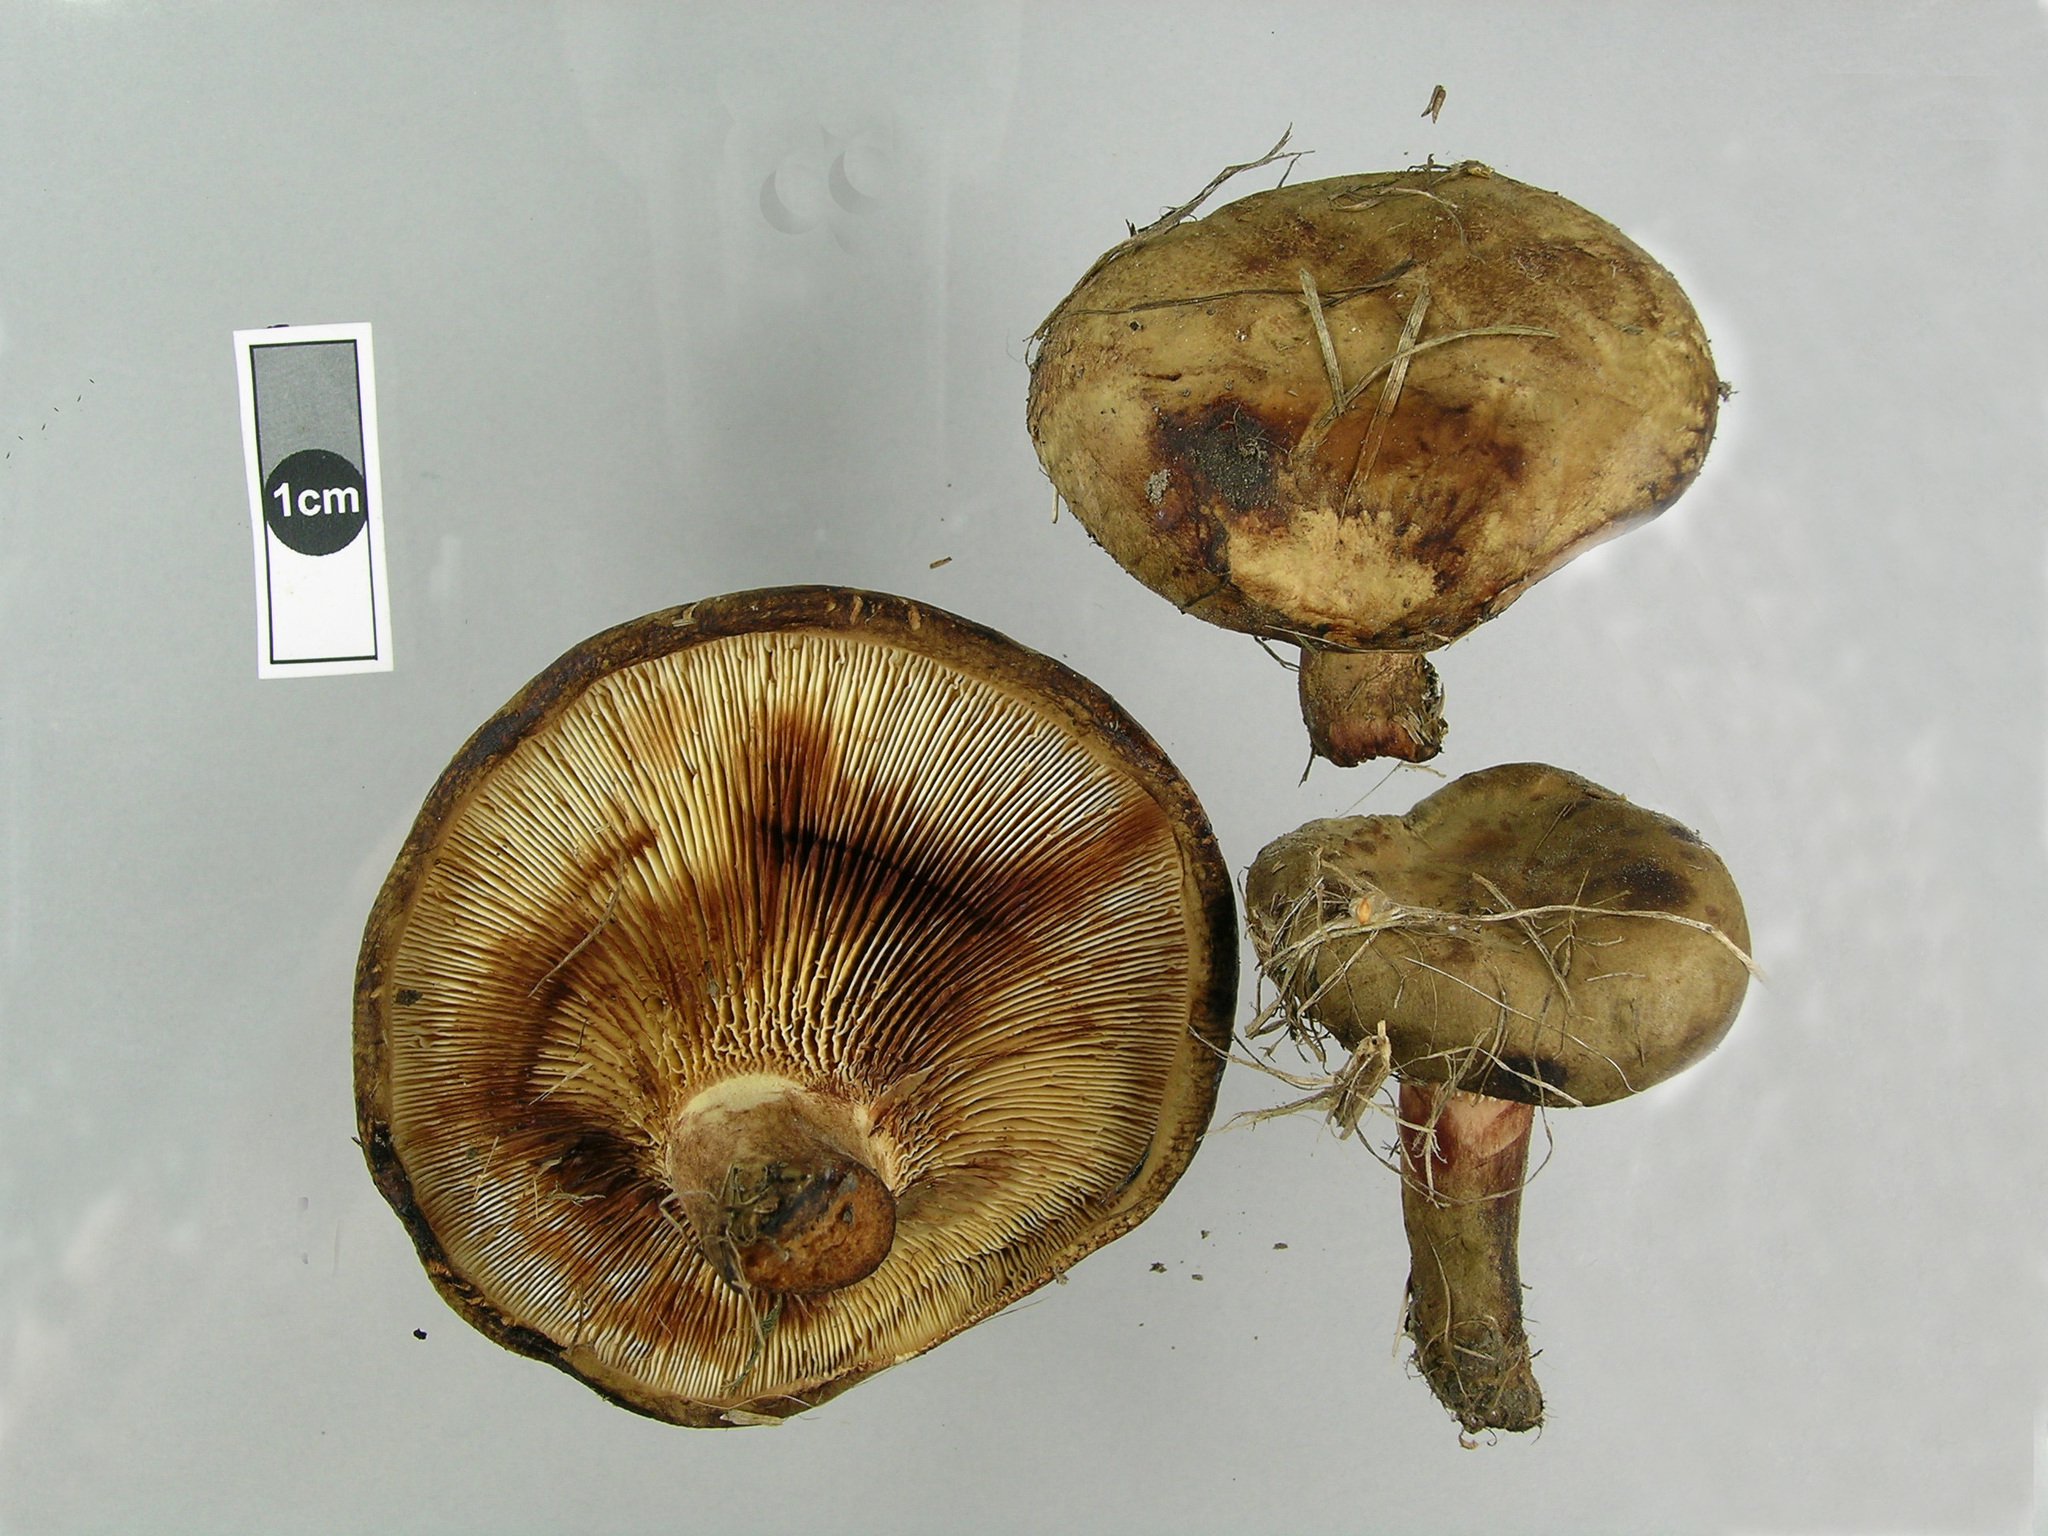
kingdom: Fungi
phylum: Basidiomycota
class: Agaricomycetes
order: Boletales
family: Paxillaceae
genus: Paxillus
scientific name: Paxillus cuprinus
